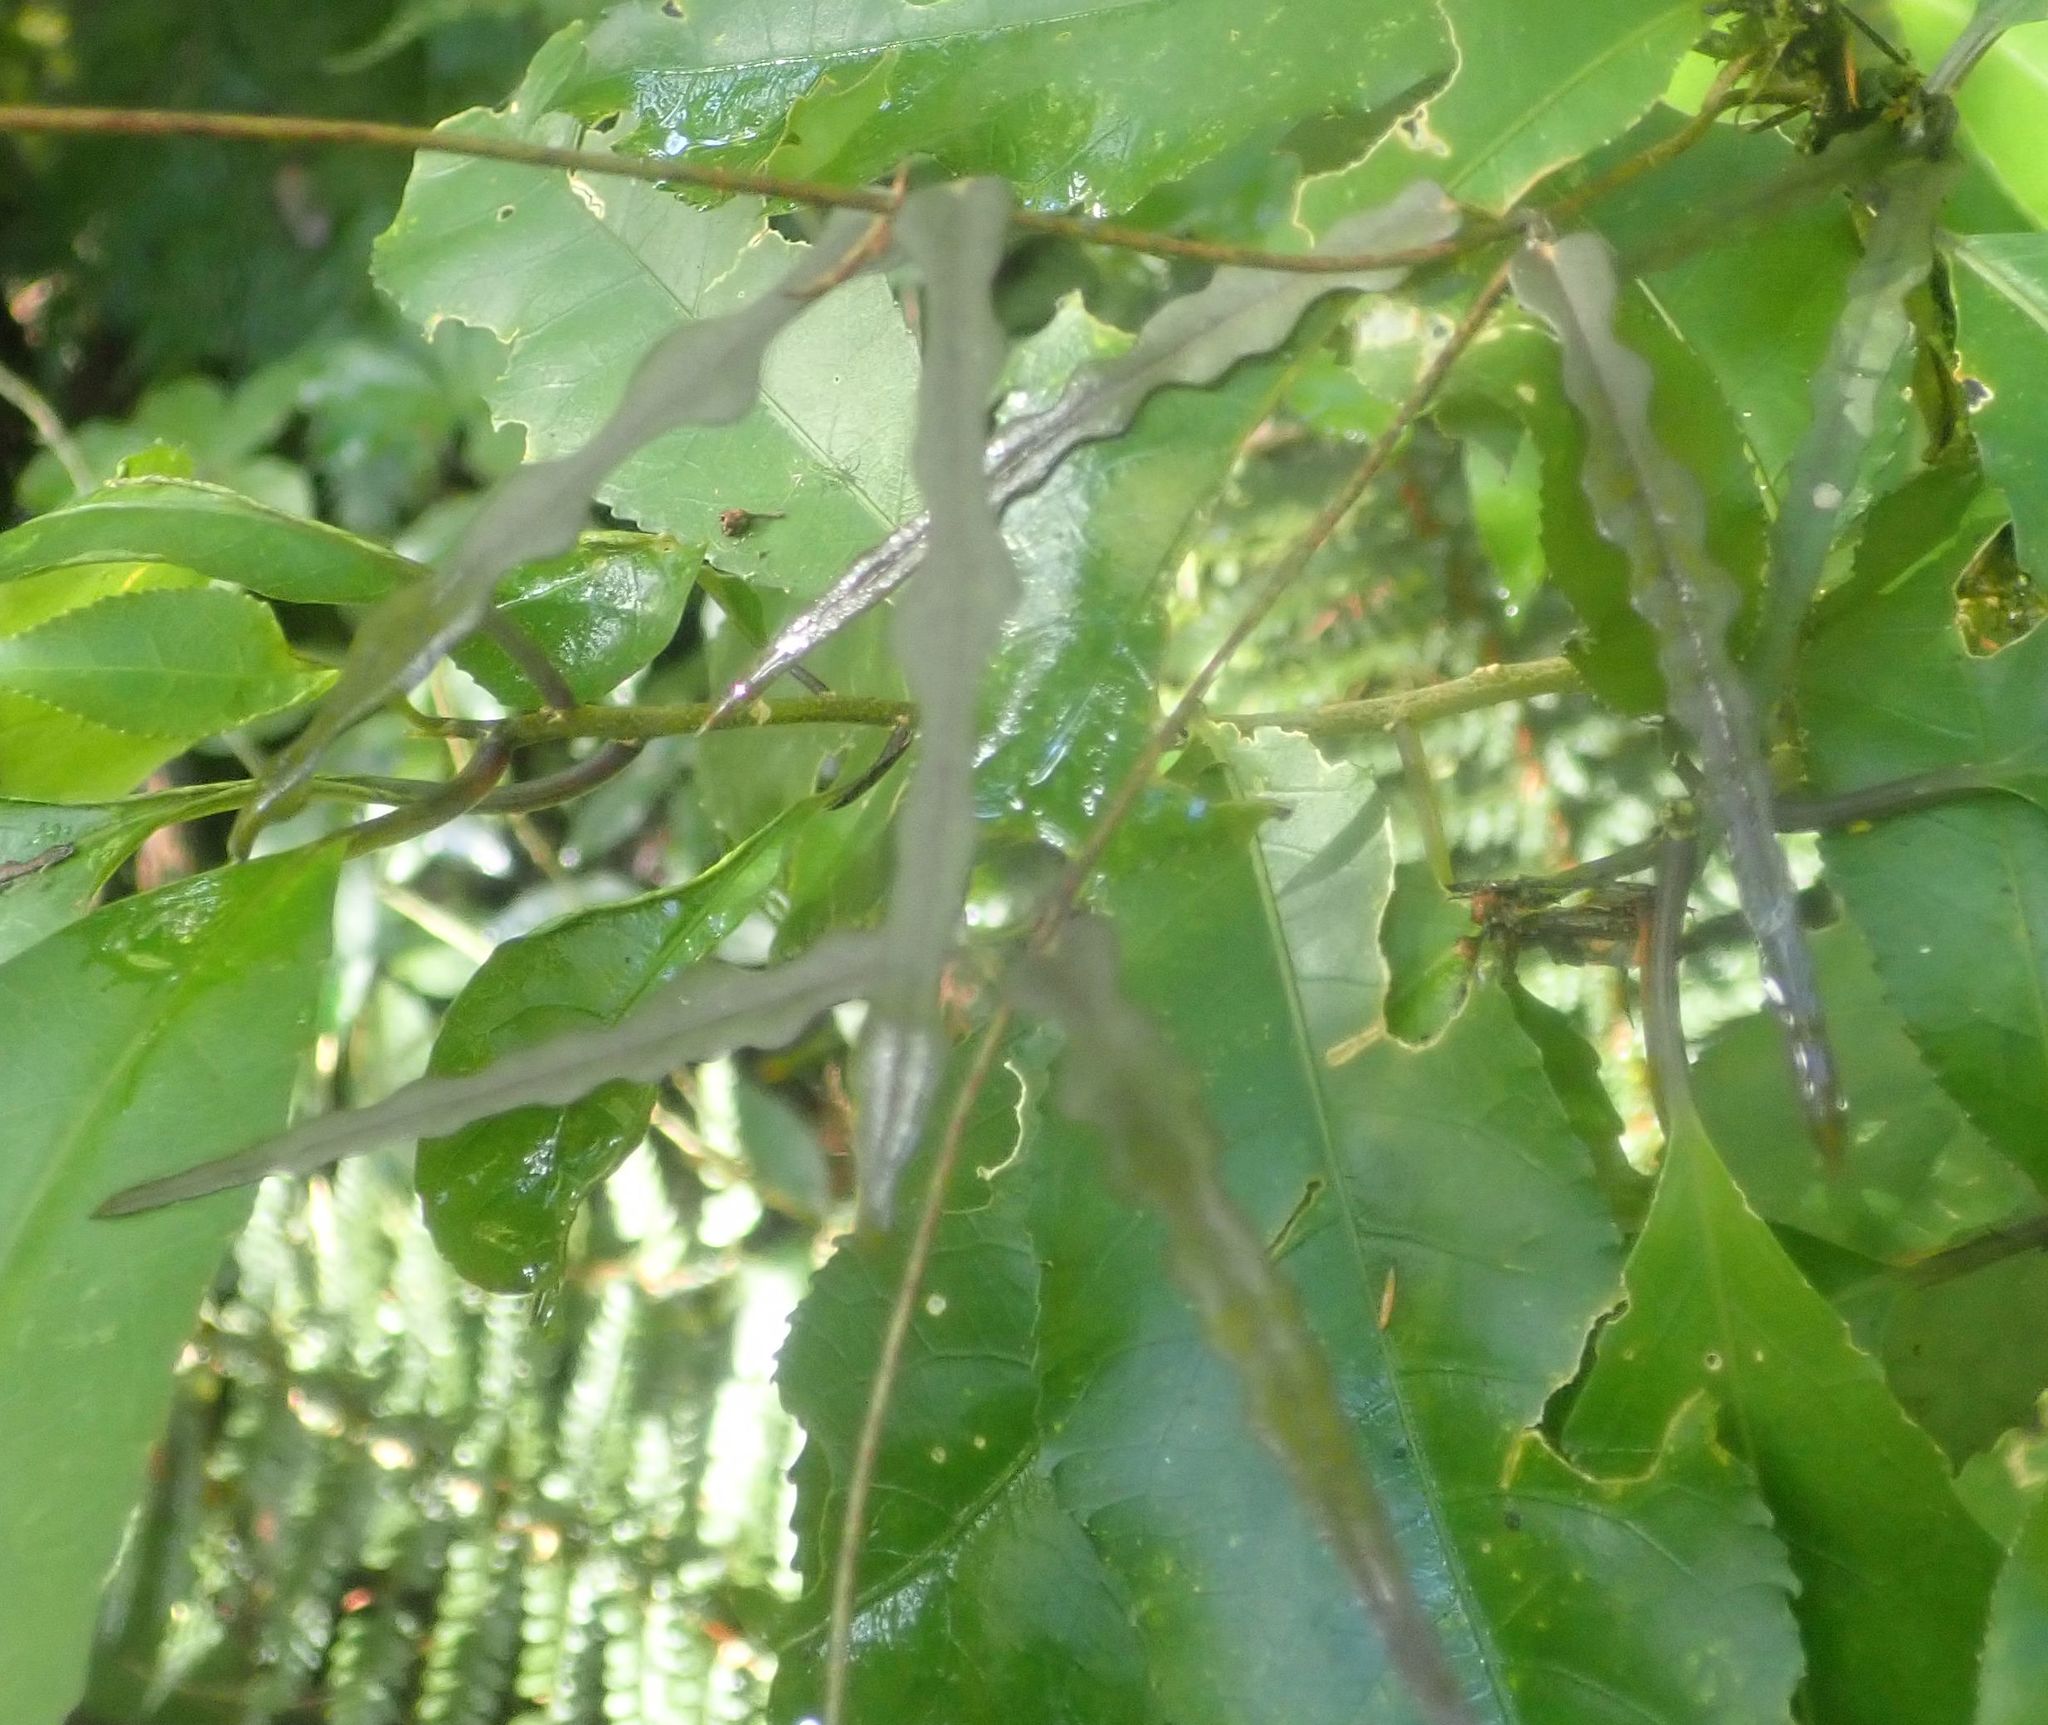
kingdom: Plantae
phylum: Tracheophyta
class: Magnoliopsida
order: Gentianales
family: Apocynaceae
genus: Parsonsia
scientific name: Parsonsia heterophylla
